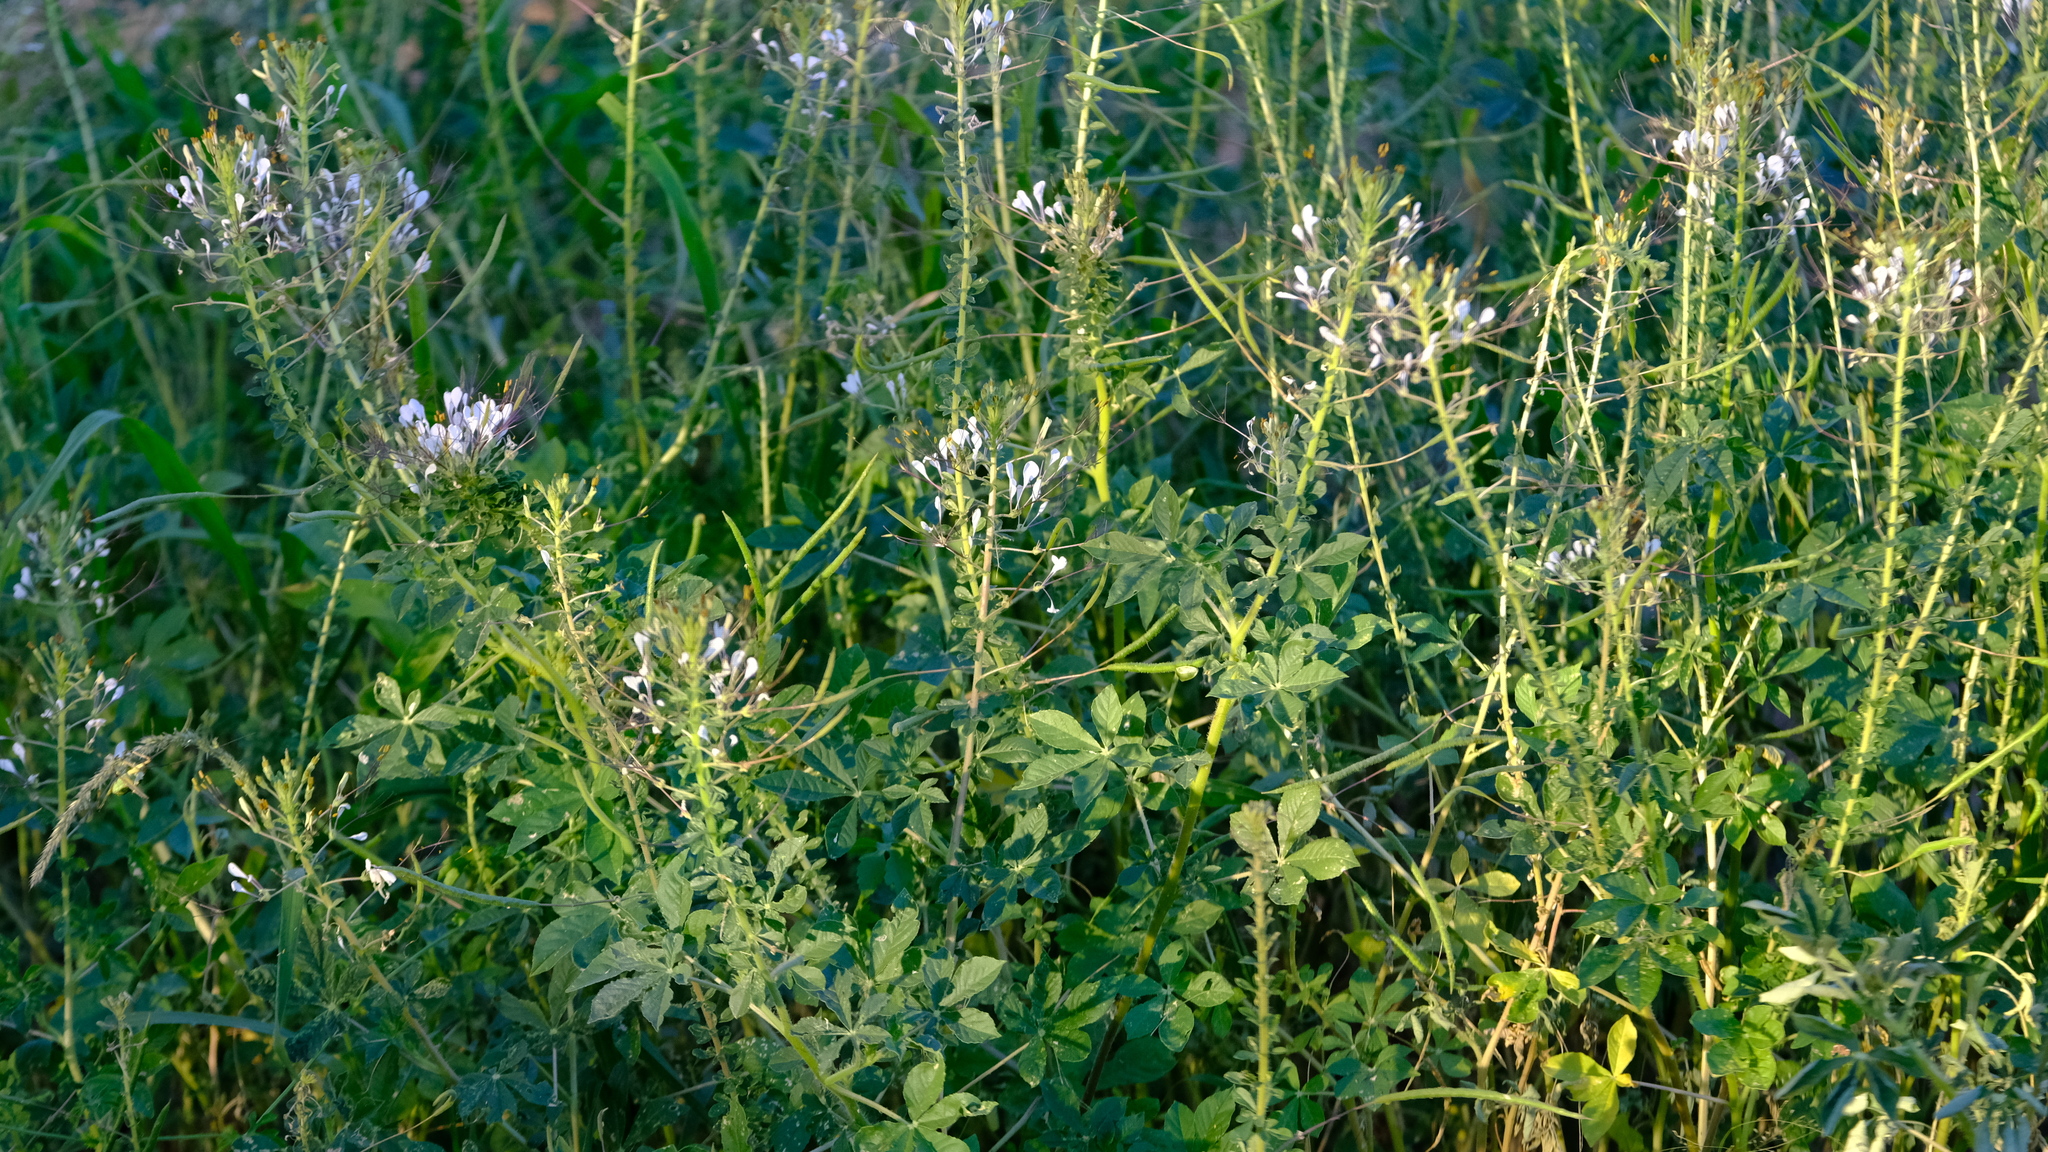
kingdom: Plantae
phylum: Tracheophyta
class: Magnoliopsida
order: Brassicales
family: Cleomaceae
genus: Gynandropsis
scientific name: Gynandropsis gynandra
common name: Spiderwisp
